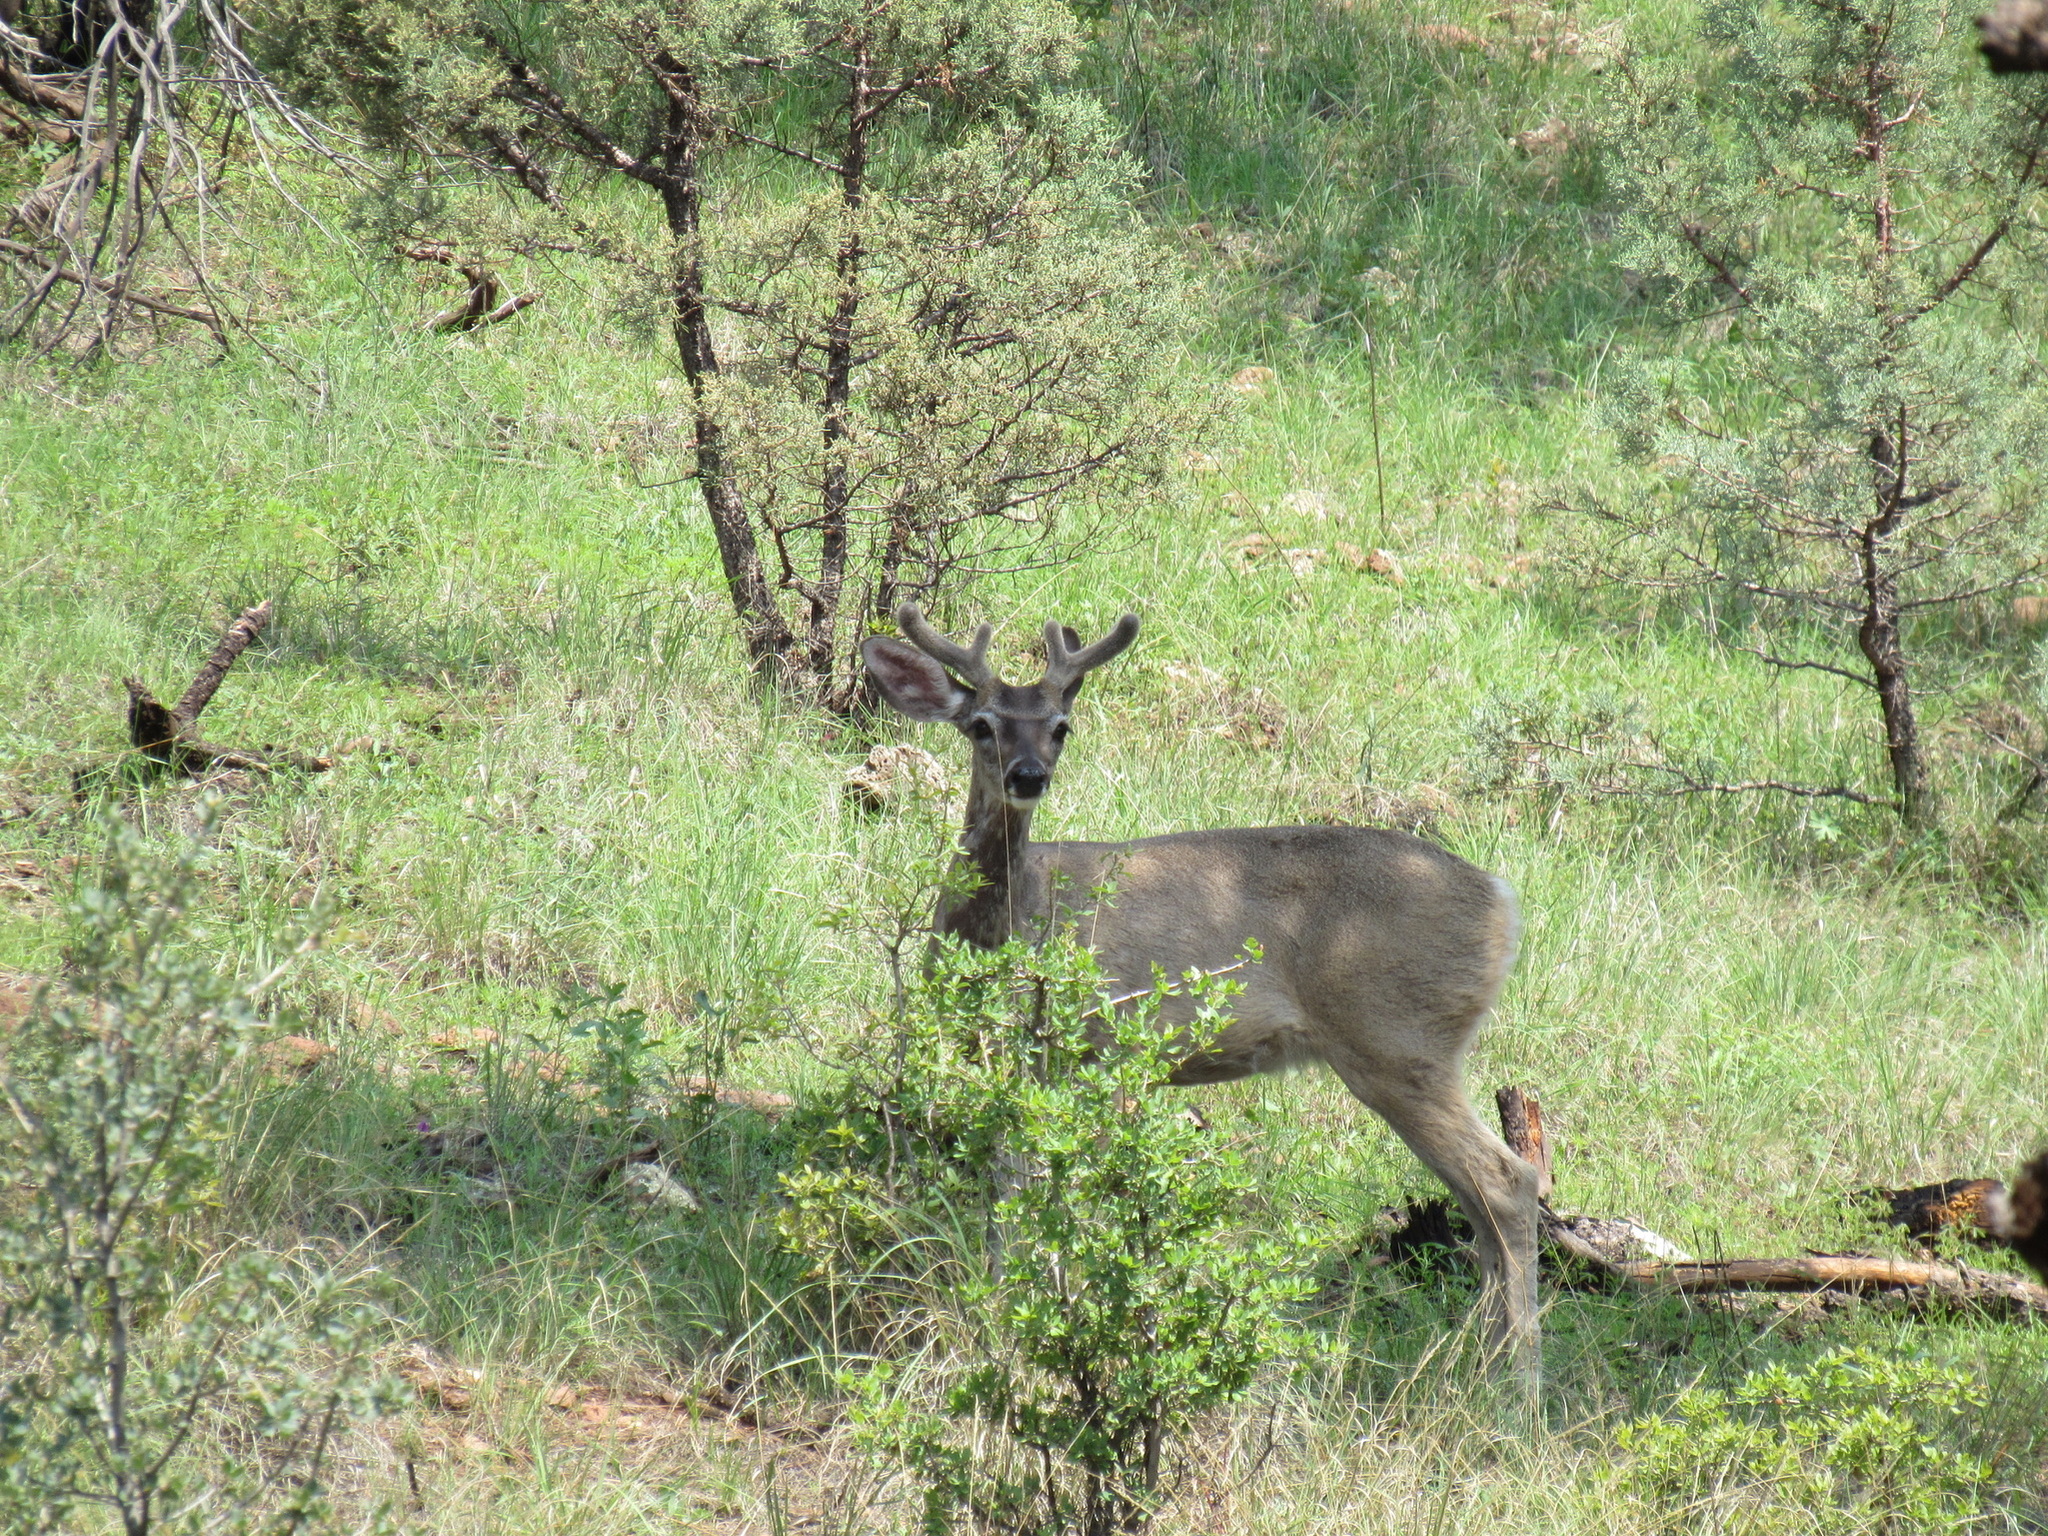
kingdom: Animalia
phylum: Chordata
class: Mammalia
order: Artiodactyla
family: Cervidae
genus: Odocoileus
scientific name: Odocoileus hemionus
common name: Mule deer
